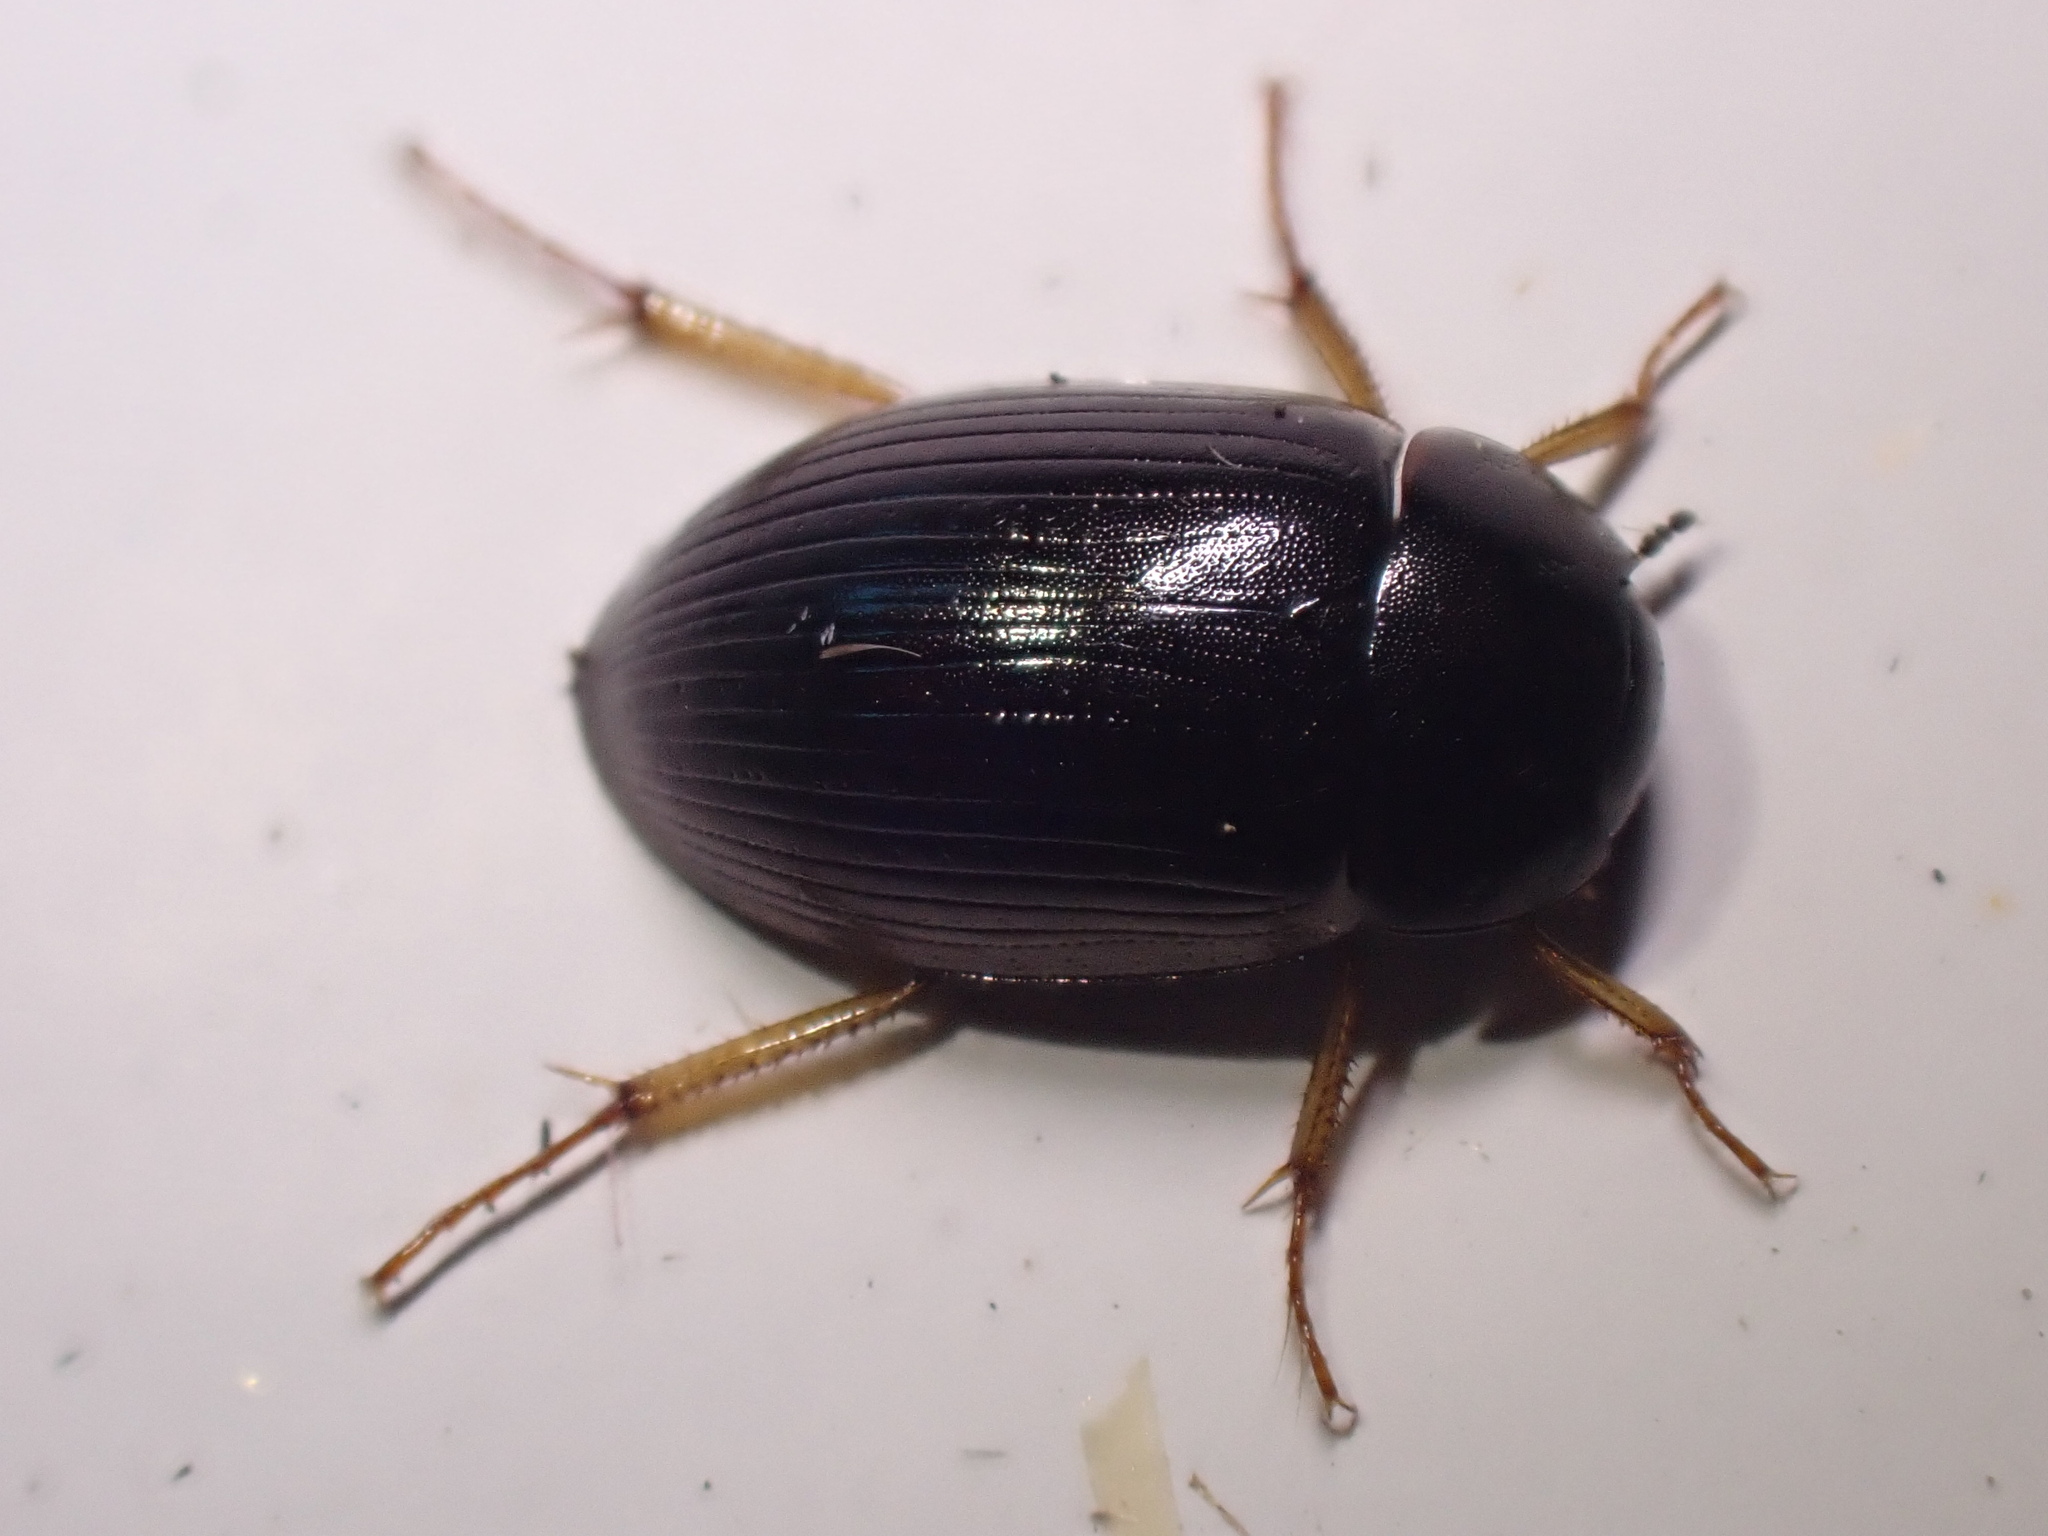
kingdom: Animalia
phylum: Arthropoda
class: Insecta
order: Coleoptera
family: Hydrophilidae
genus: Hydrobius
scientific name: Hydrobius
